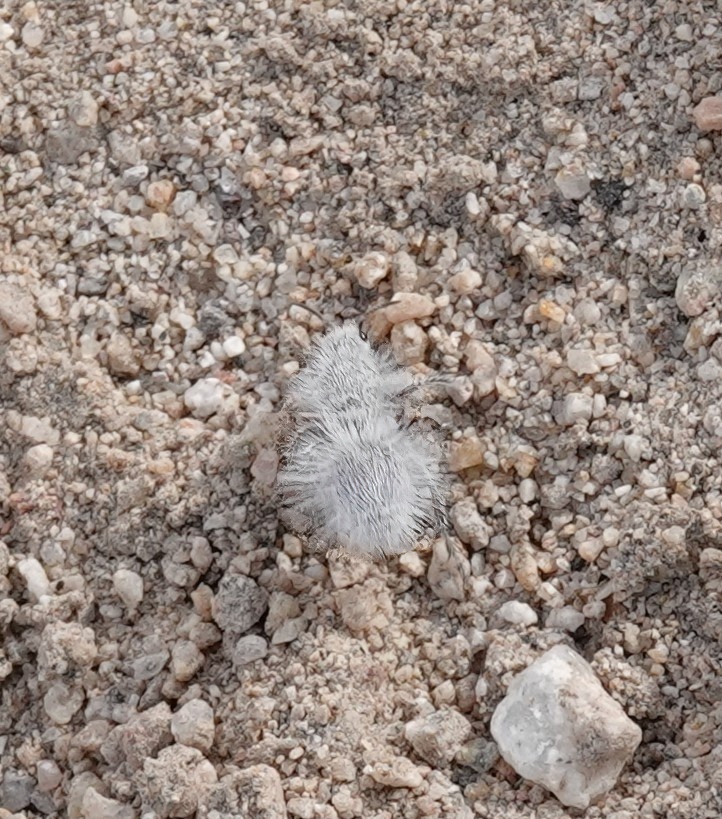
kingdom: Animalia
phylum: Arthropoda
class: Insecta
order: Hymenoptera
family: Mutillidae
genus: Dasymutilla
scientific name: Dasymutilla gloriosa
